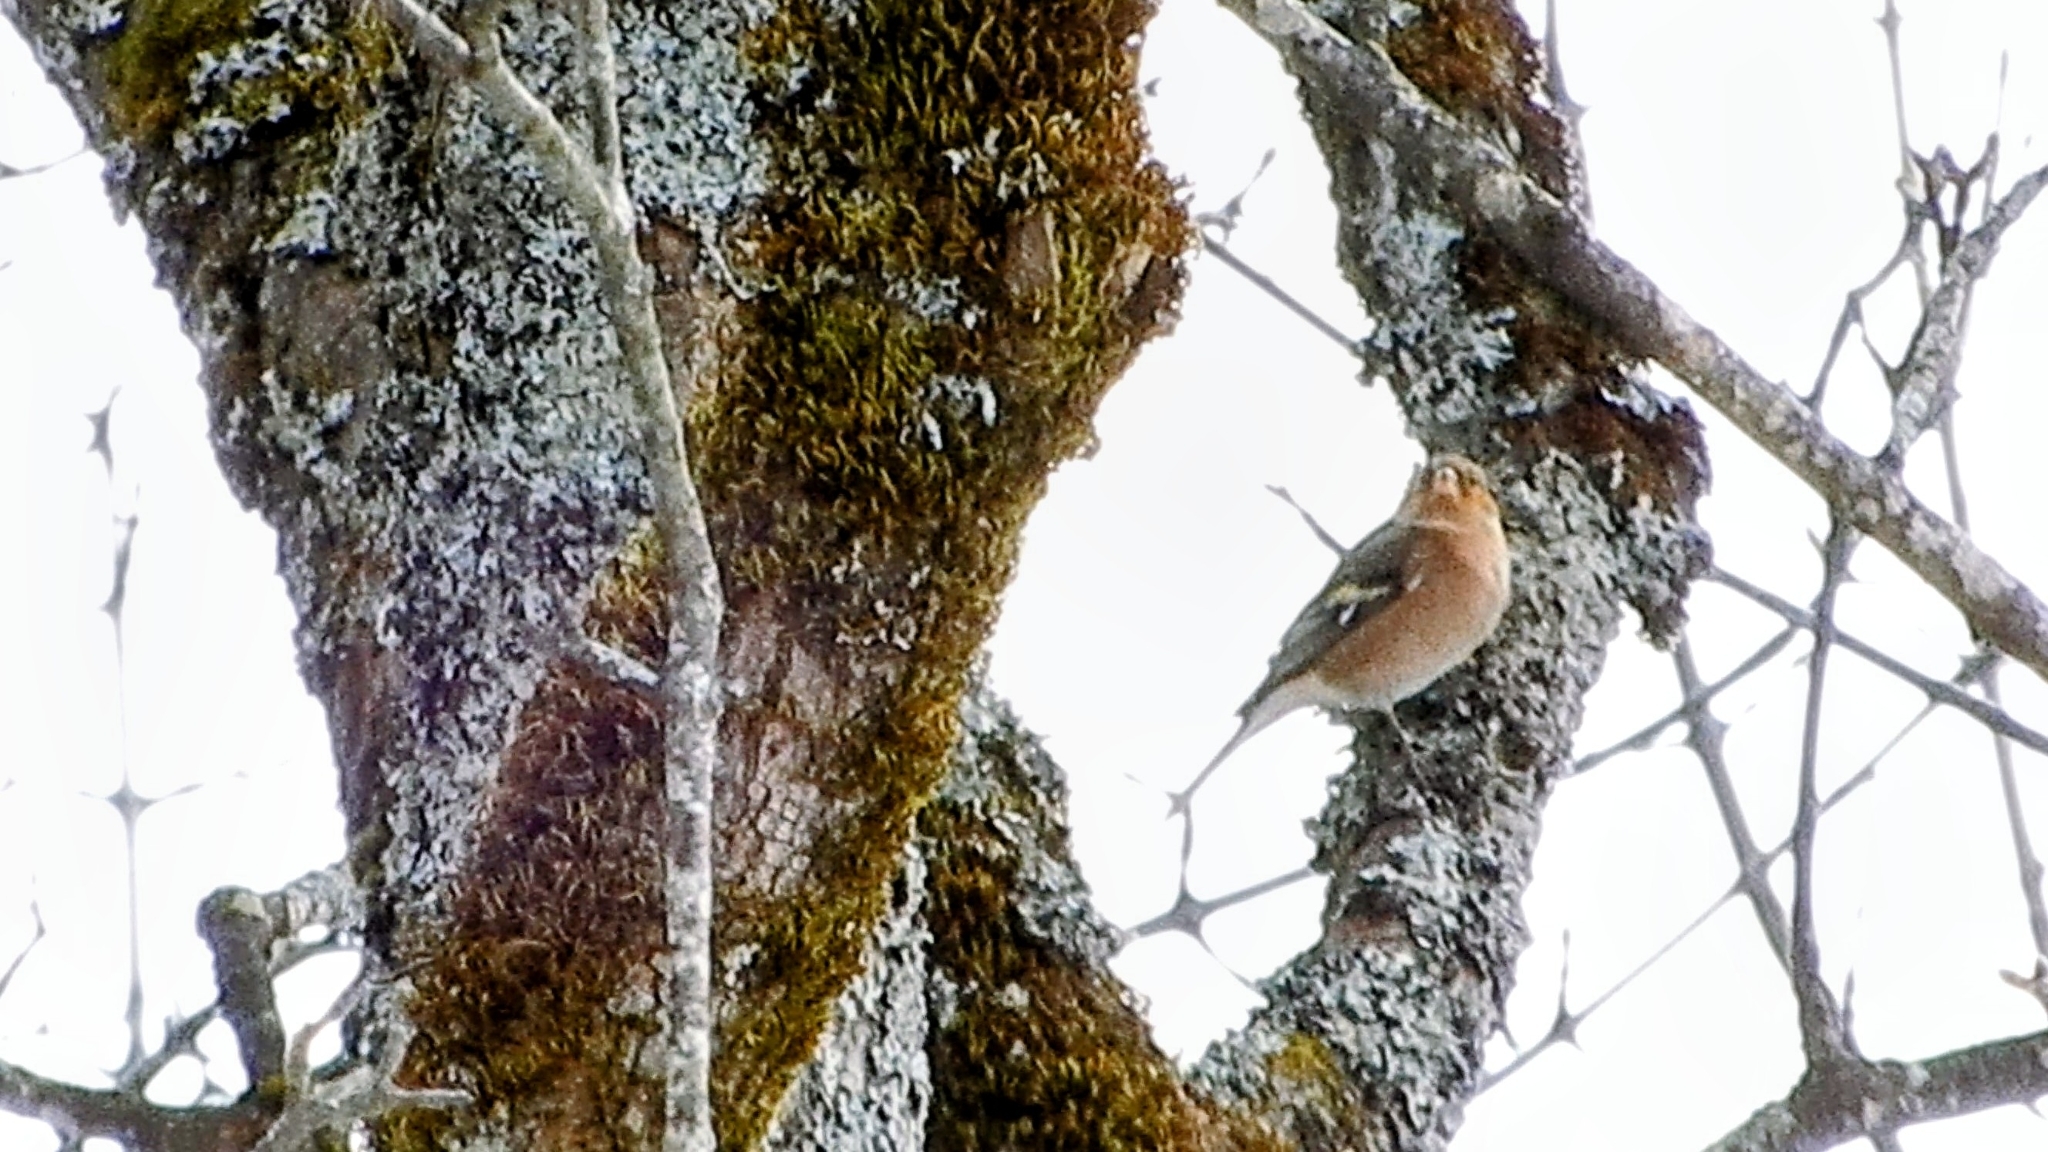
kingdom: Animalia
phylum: Chordata
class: Aves
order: Passeriformes
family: Fringillidae
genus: Fringilla
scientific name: Fringilla coelebs
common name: Common chaffinch
